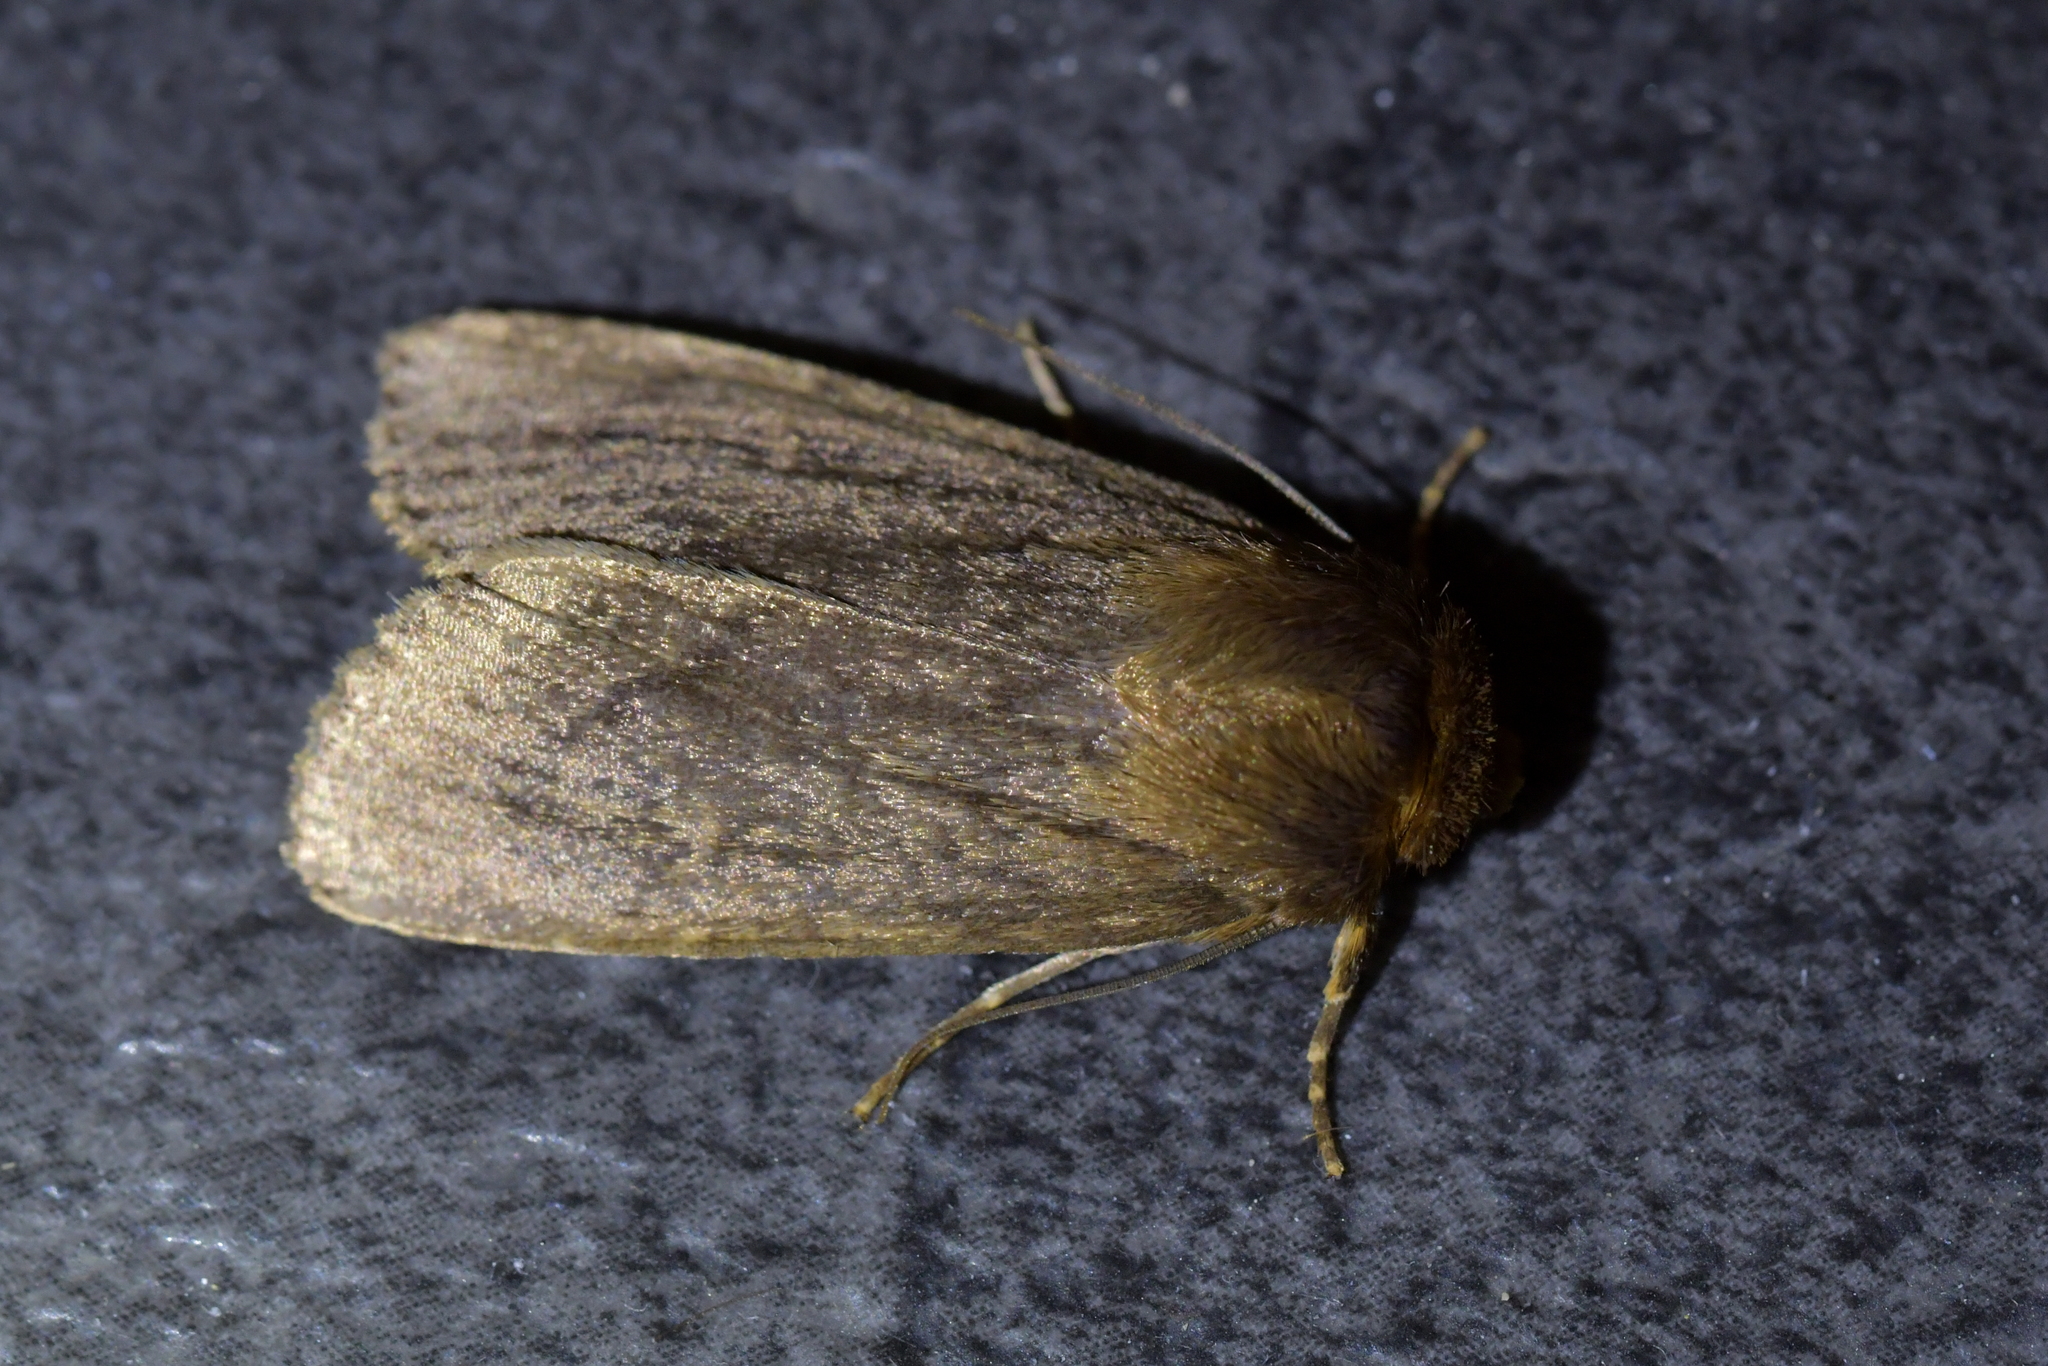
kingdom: Animalia
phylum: Arthropoda
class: Insecta
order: Lepidoptera
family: Noctuidae
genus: Bityla
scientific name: Bityla defigurata
